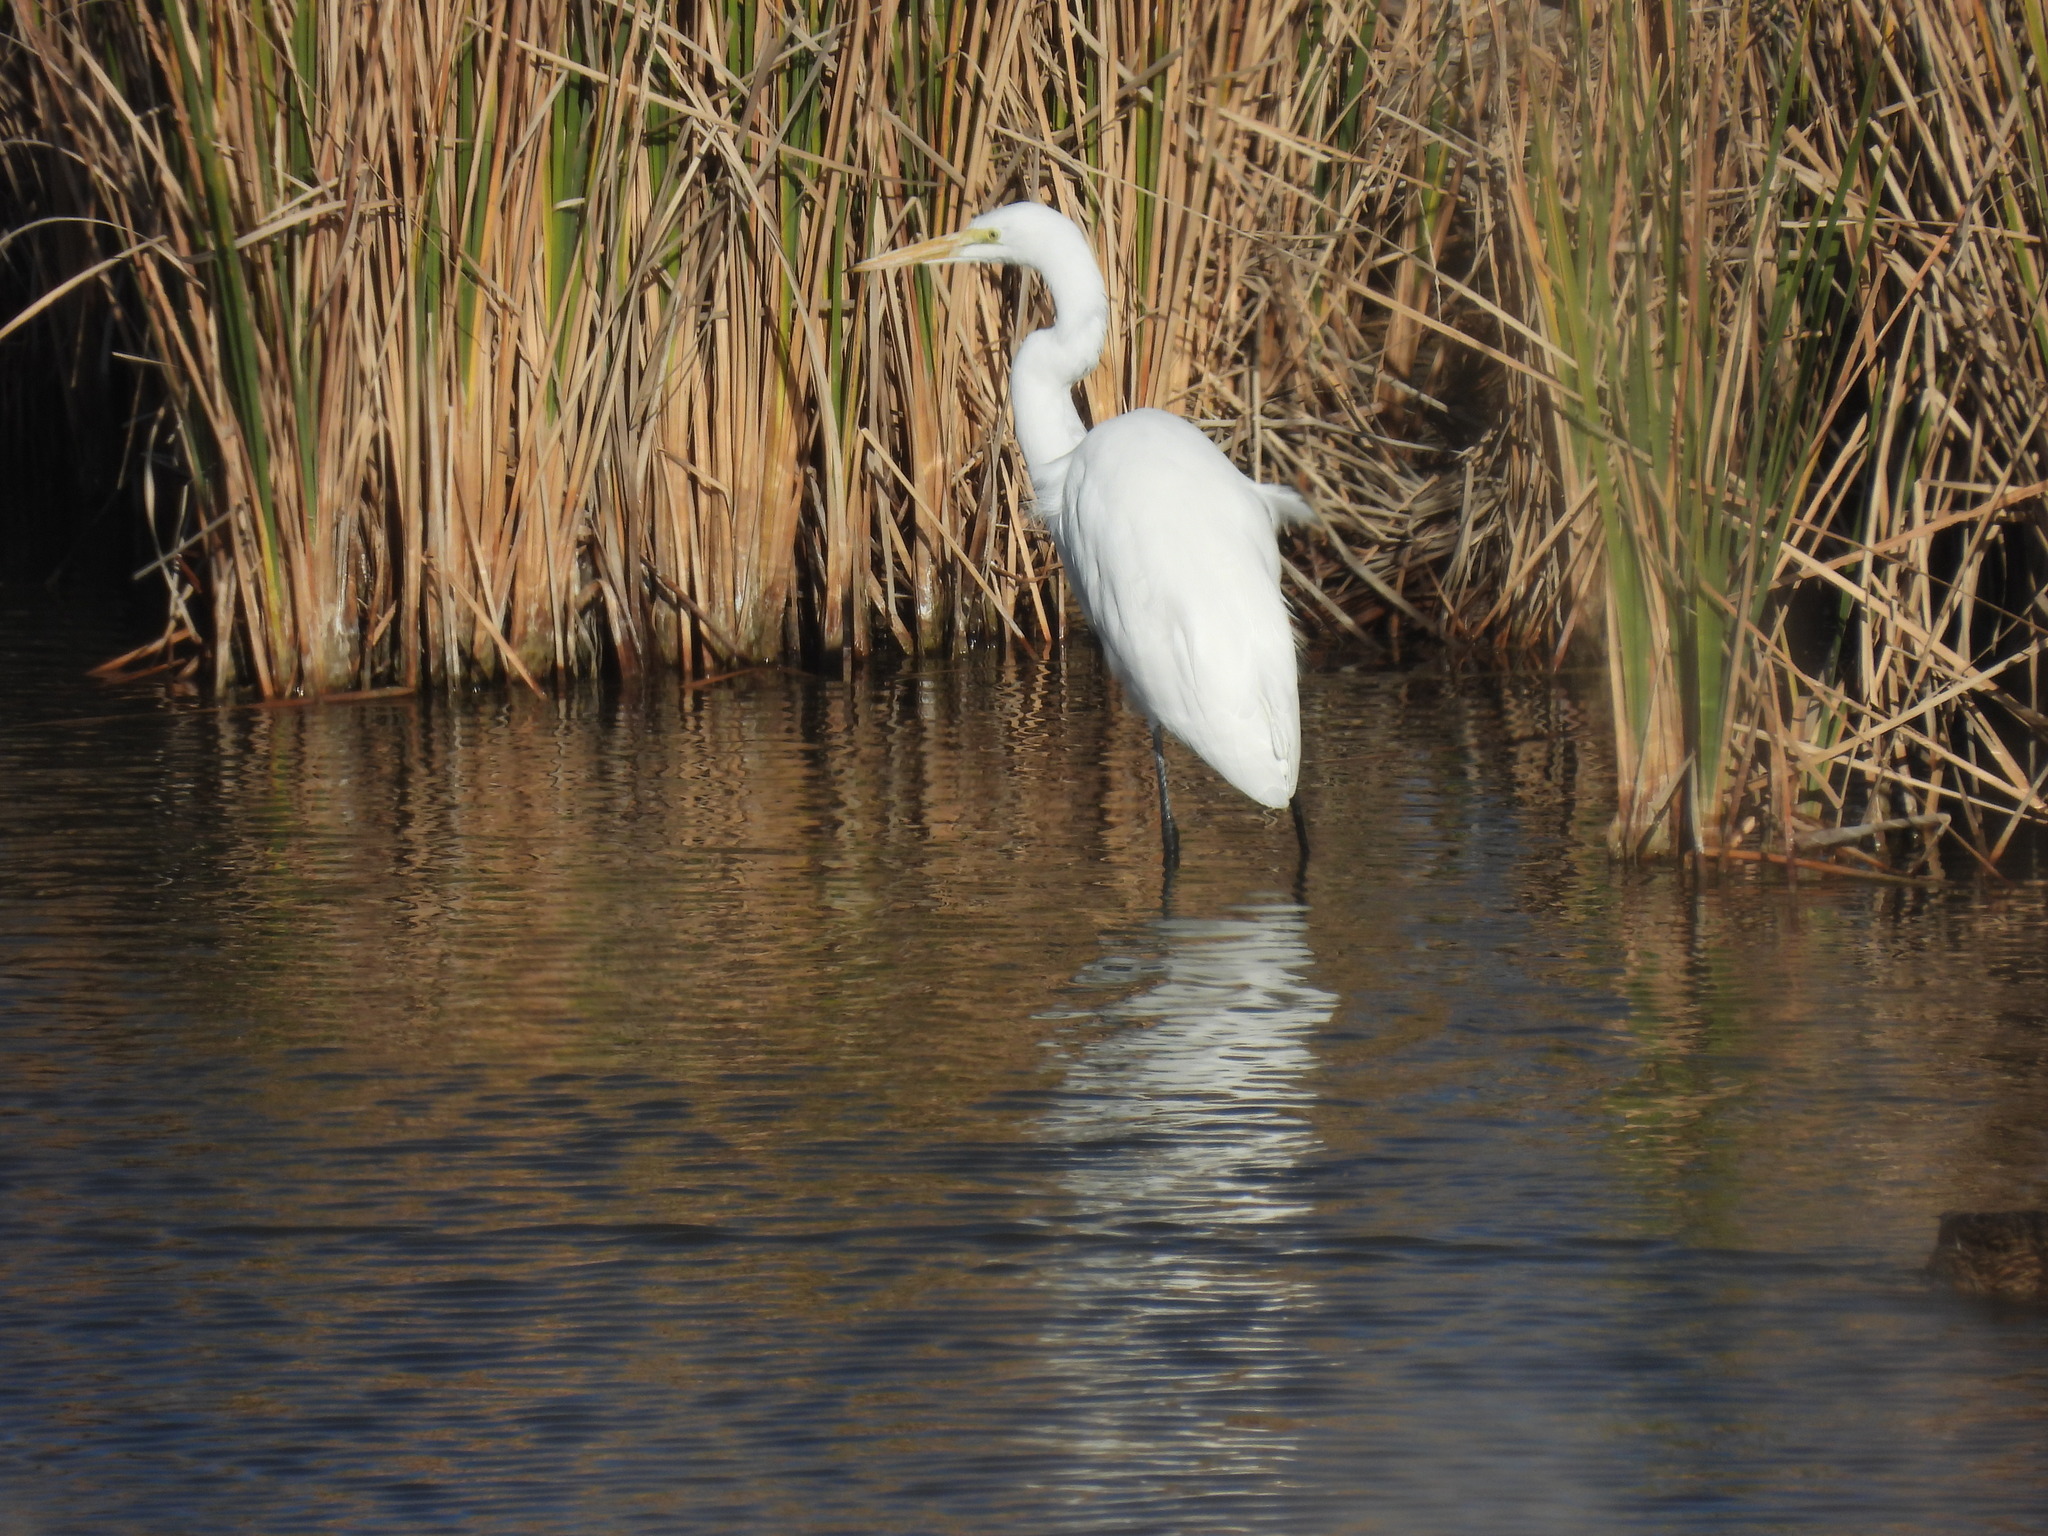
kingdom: Animalia
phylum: Chordata
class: Aves
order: Pelecaniformes
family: Ardeidae
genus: Ardea
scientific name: Ardea alba
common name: Great egret
